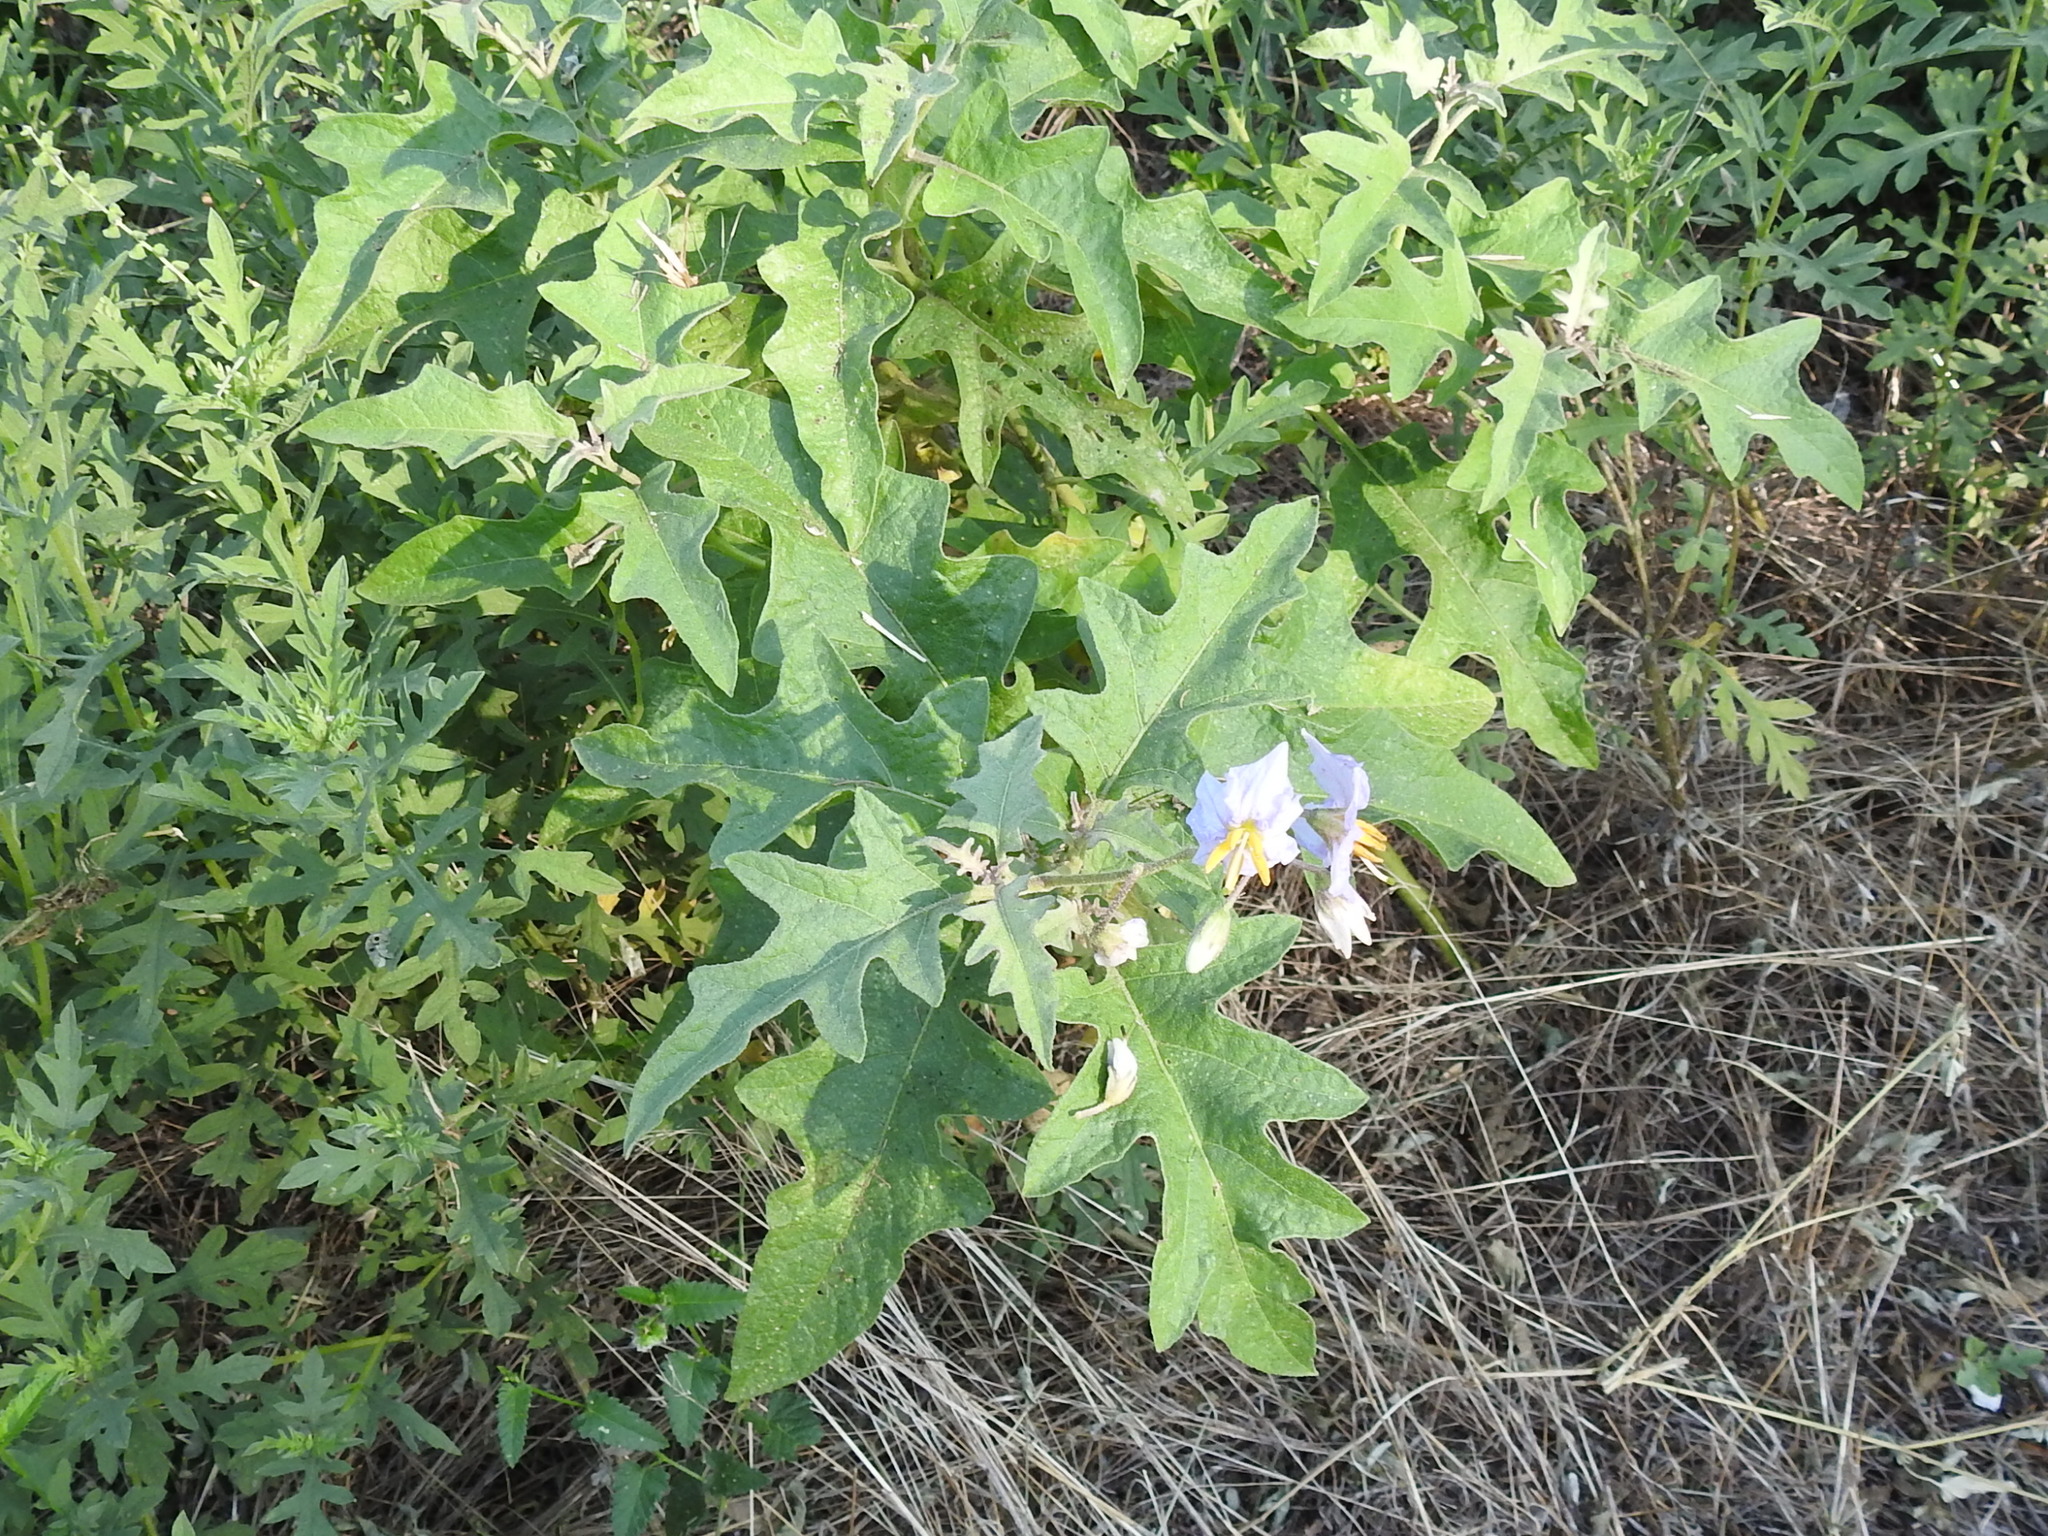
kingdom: Plantae
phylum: Tracheophyta
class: Magnoliopsida
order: Solanales
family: Solanaceae
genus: Solanum
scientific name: Solanum dimidiatum
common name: Carolina horse-nettle
